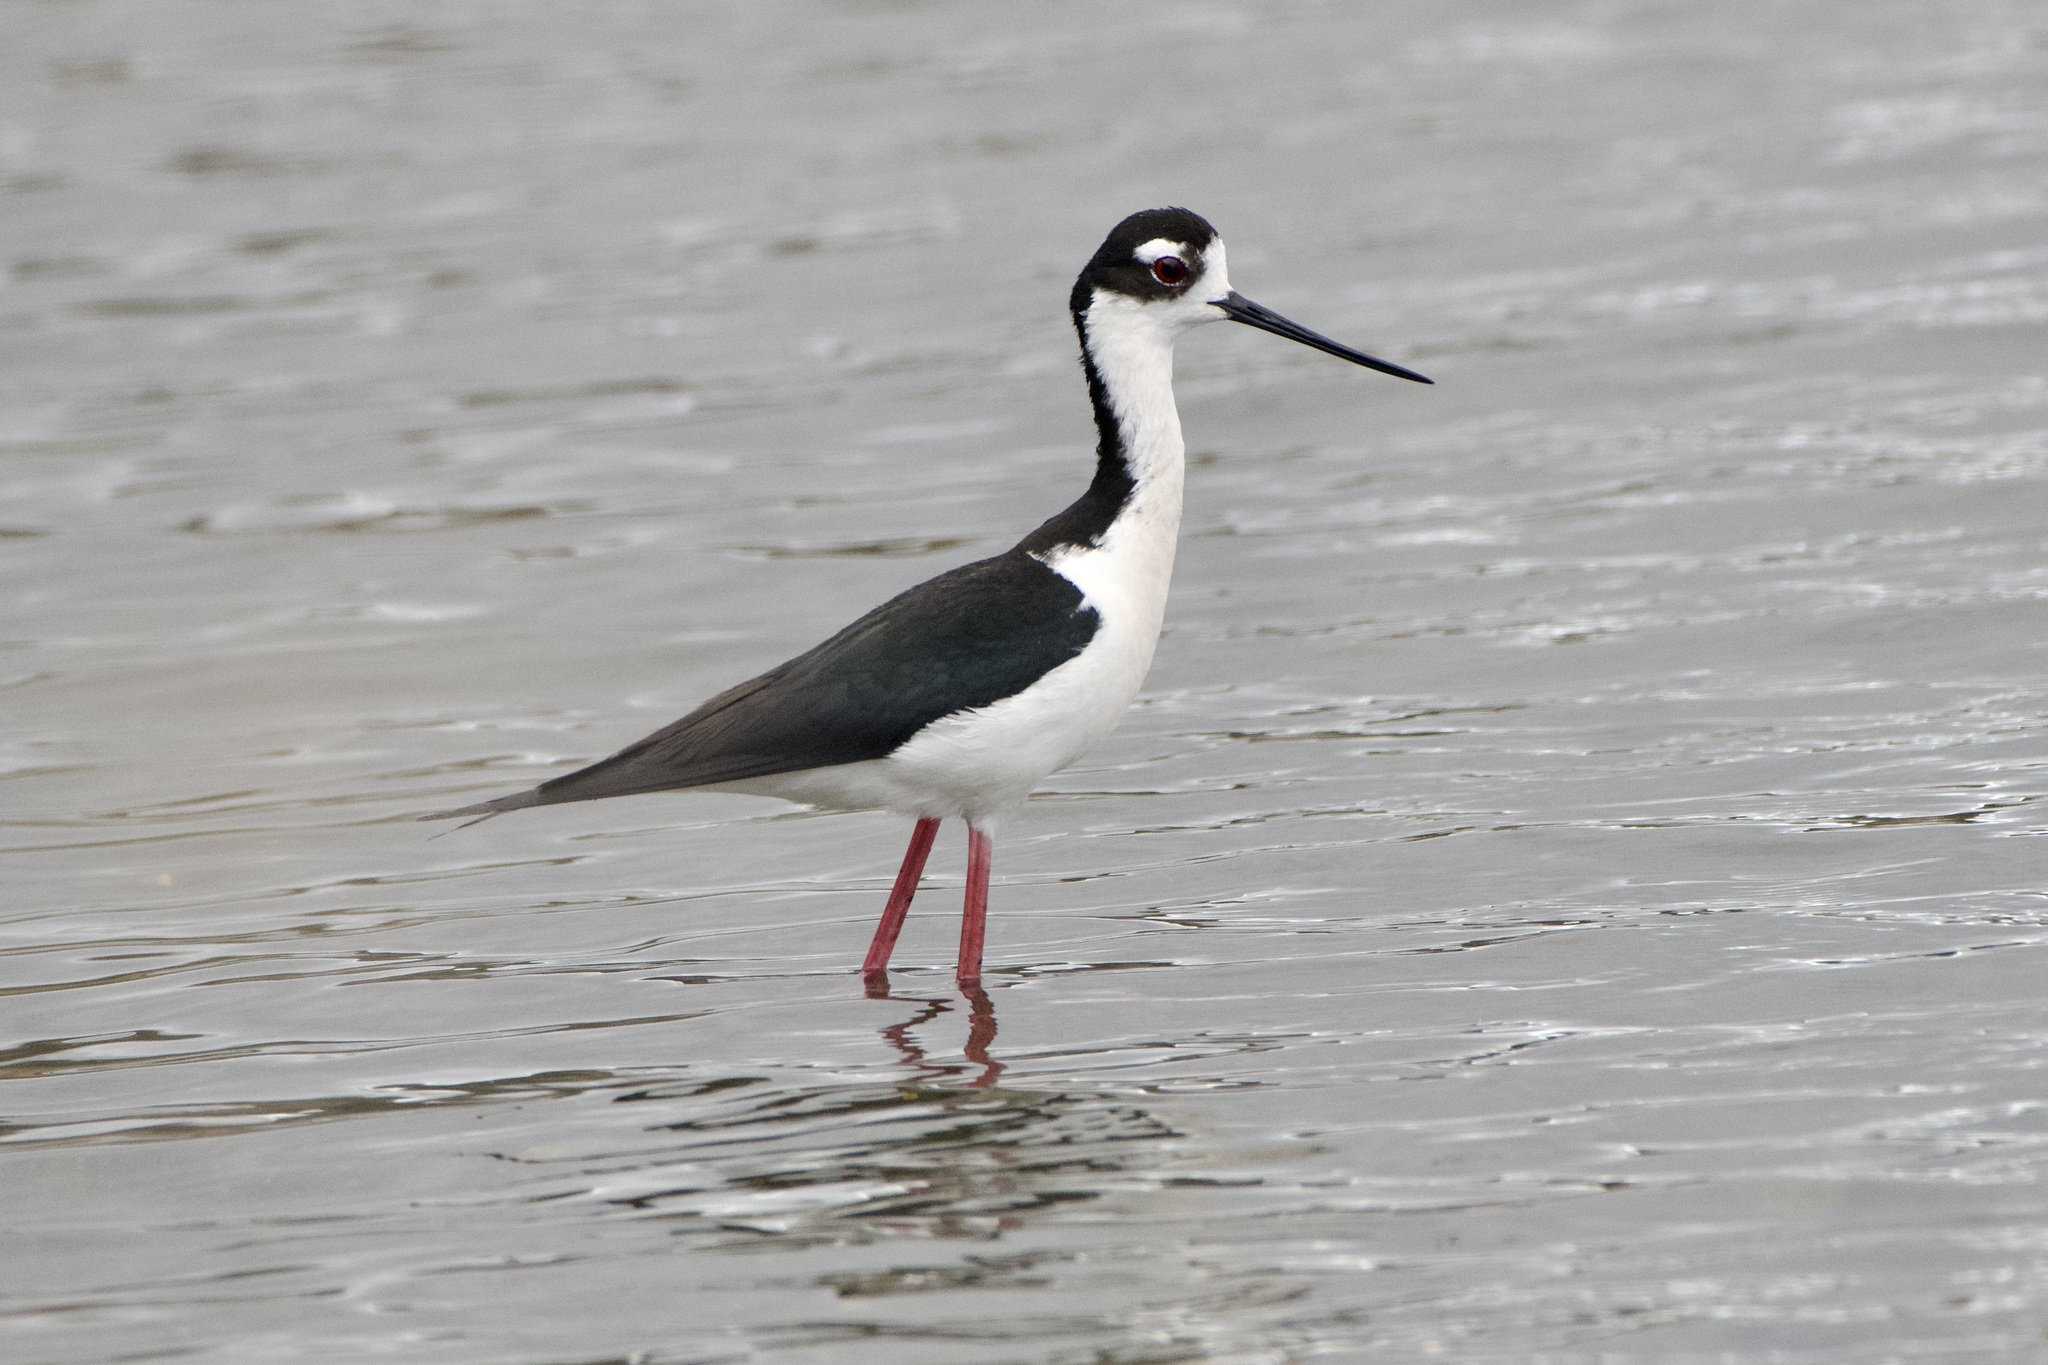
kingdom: Animalia
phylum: Chordata
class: Aves
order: Charadriiformes
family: Recurvirostridae
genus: Himantopus
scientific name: Himantopus mexicanus
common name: Black-necked stilt
